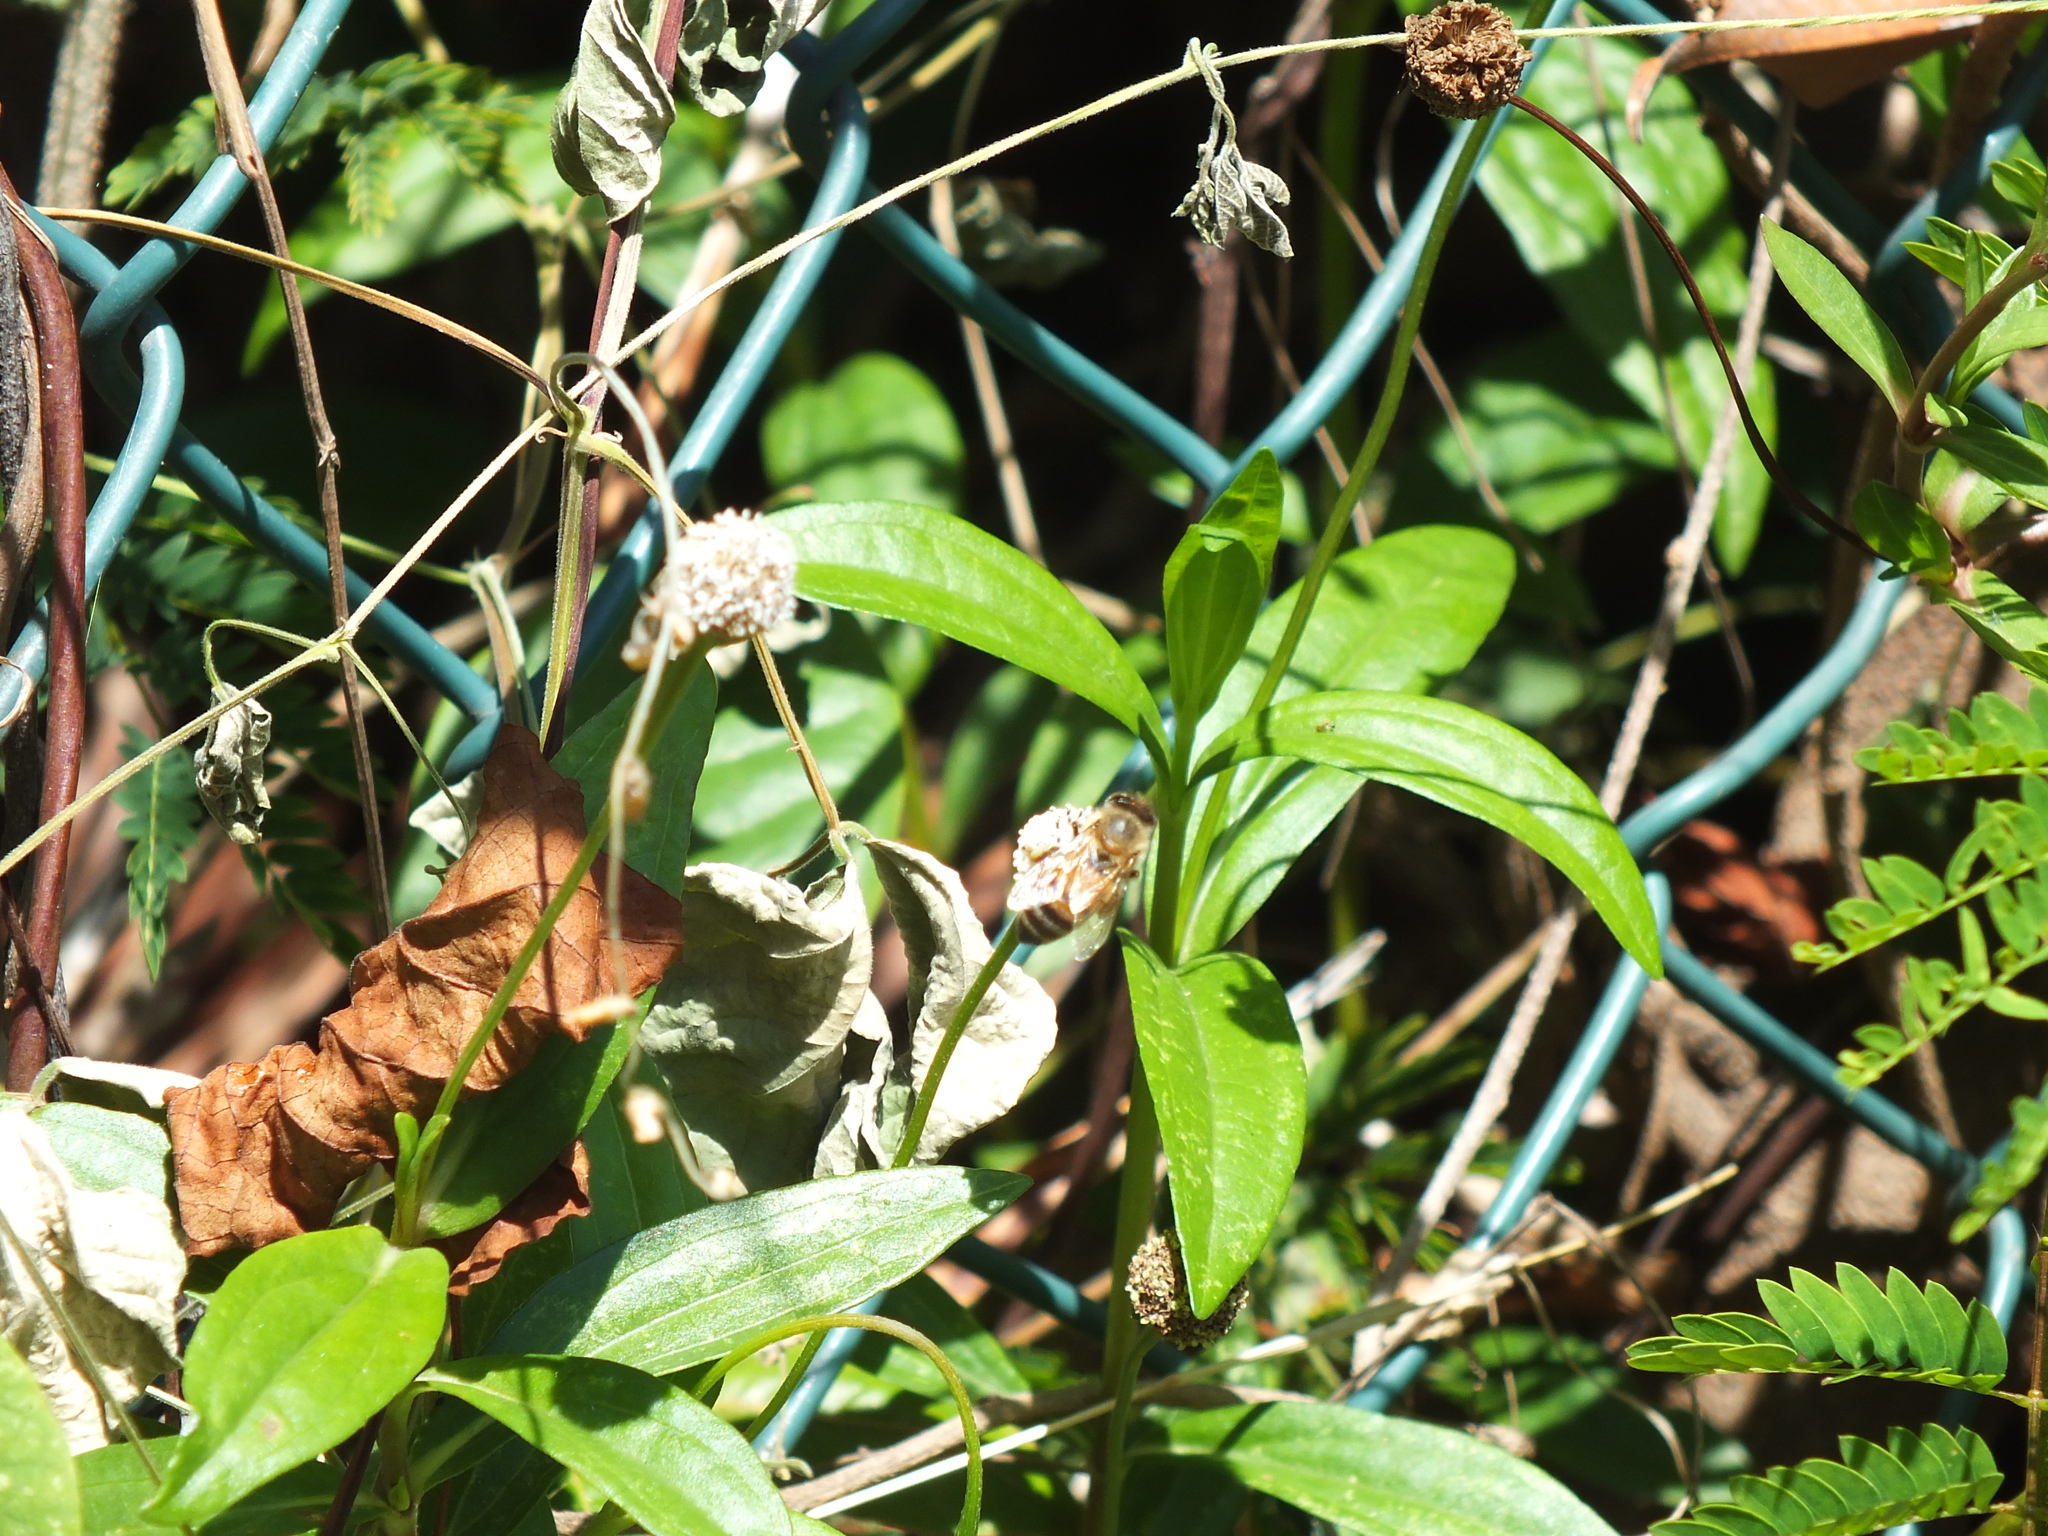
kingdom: Animalia
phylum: Arthropoda
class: Insecta
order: Hymenoptera
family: Apidae
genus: Apis
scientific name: Apis mellifera
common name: Honey bee
